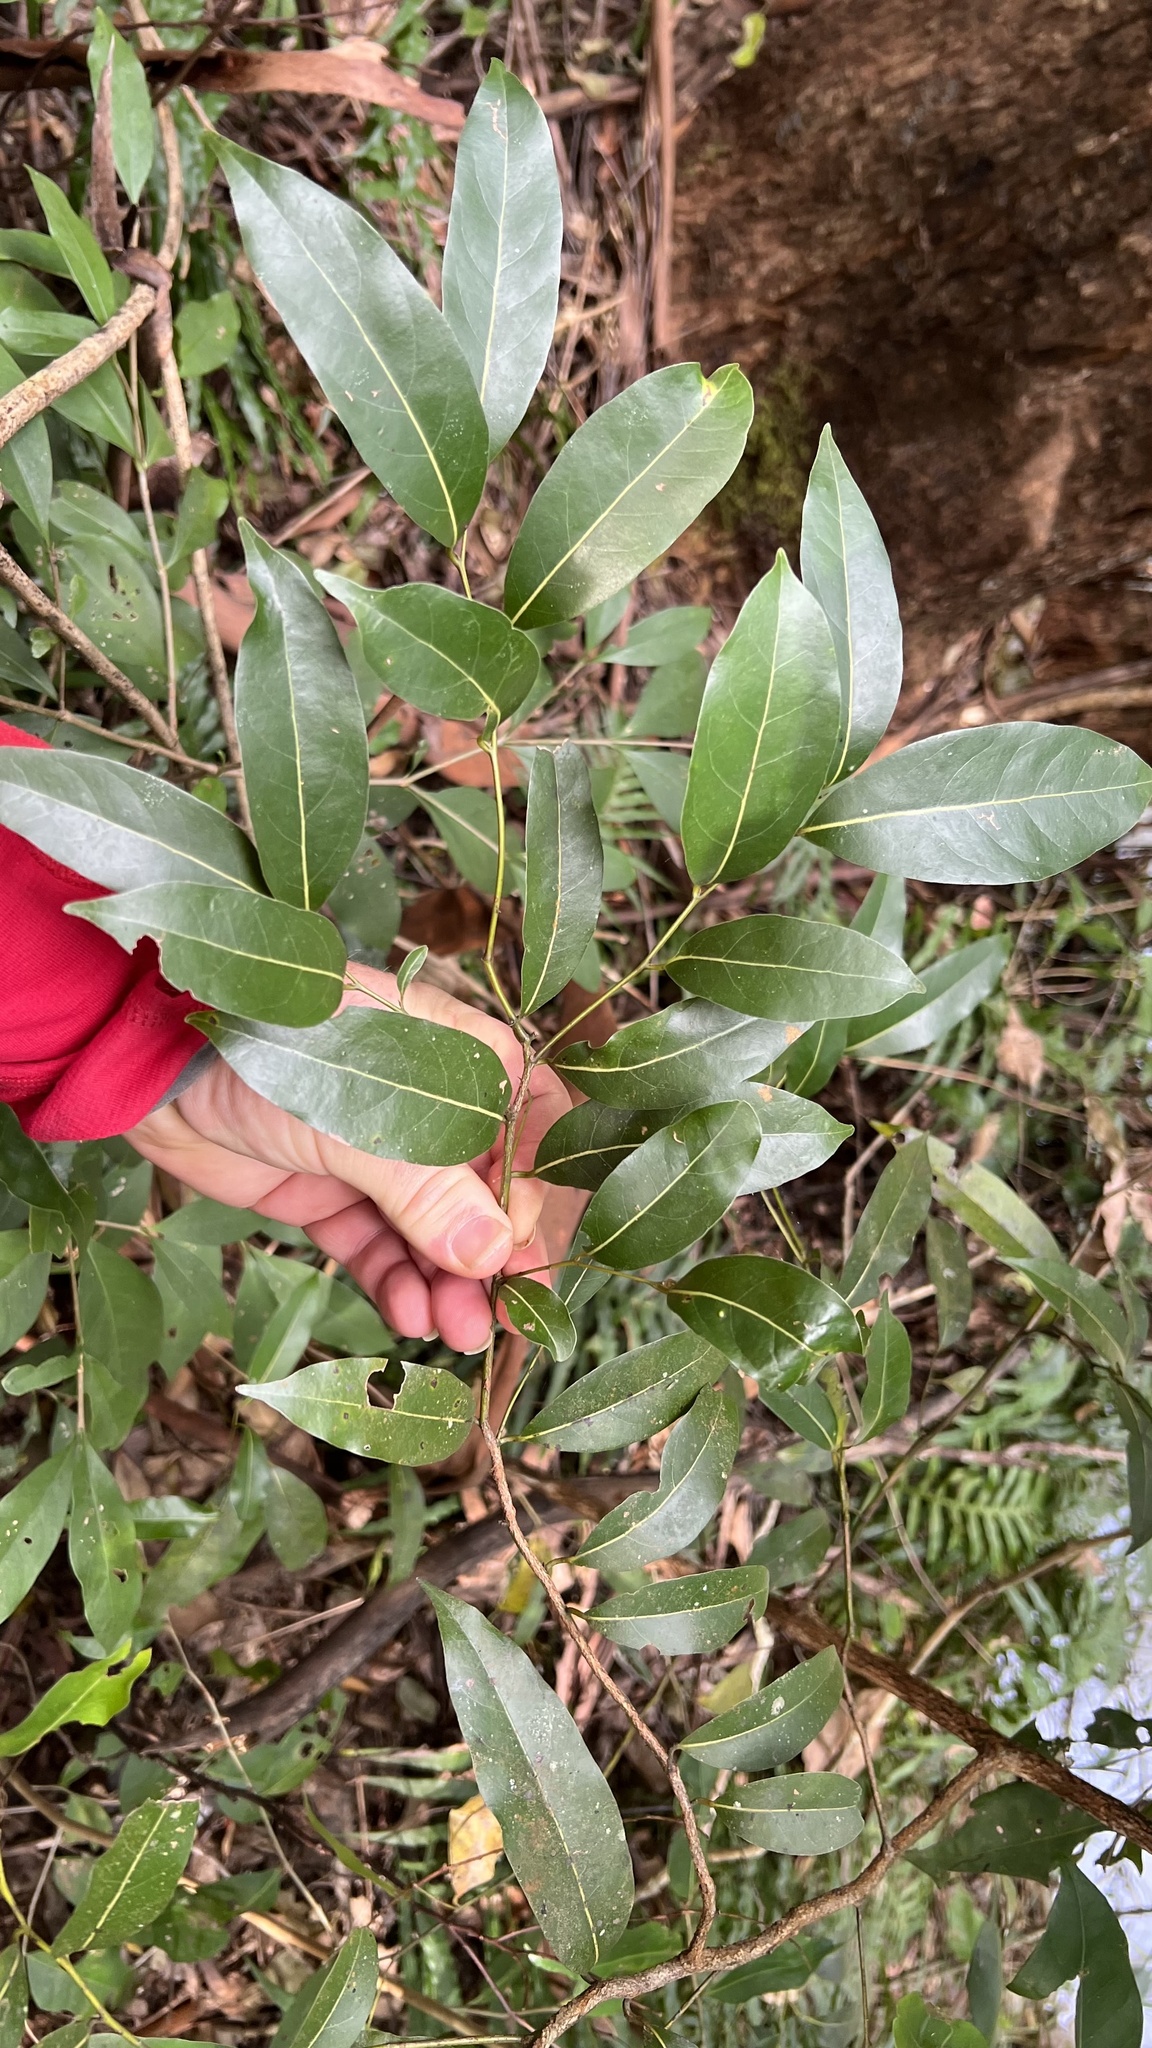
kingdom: Plantae
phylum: Tracheophyta
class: Magnoliopsida
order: Laurales
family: Lauraceae
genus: Cryptocarya
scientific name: Cryptocarya microneura
